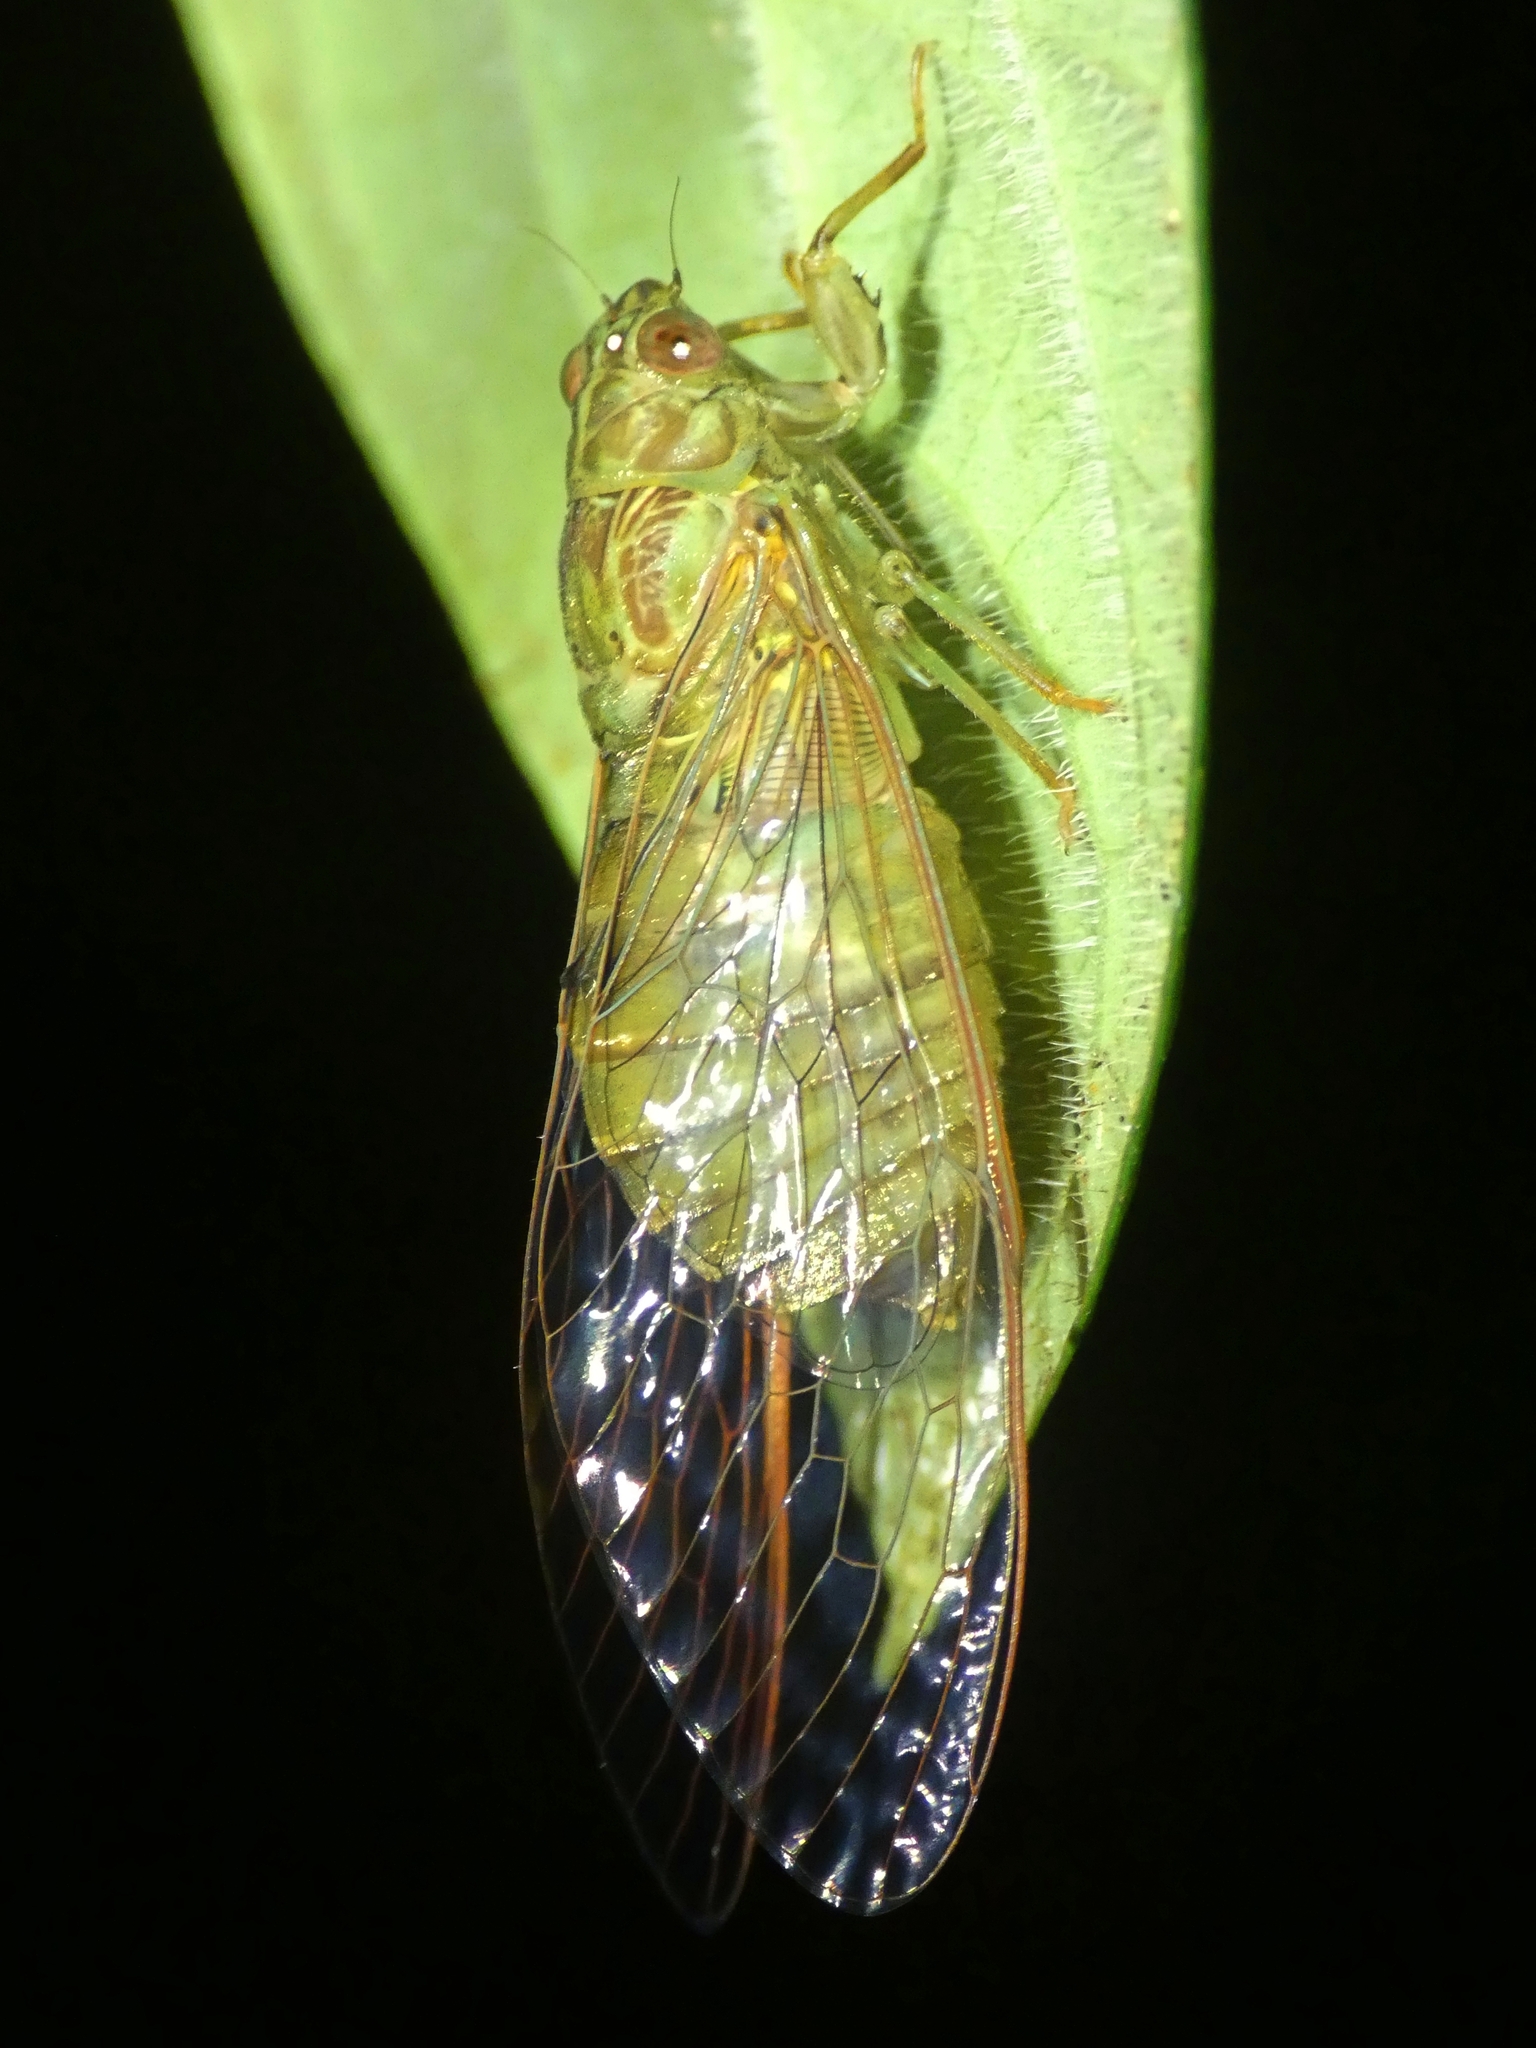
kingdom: Animalia
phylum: Arthropoda
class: Insecta
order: Hemiptera
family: Cicadidae
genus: Chlorocysta
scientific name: Chlorocysta suffusa
